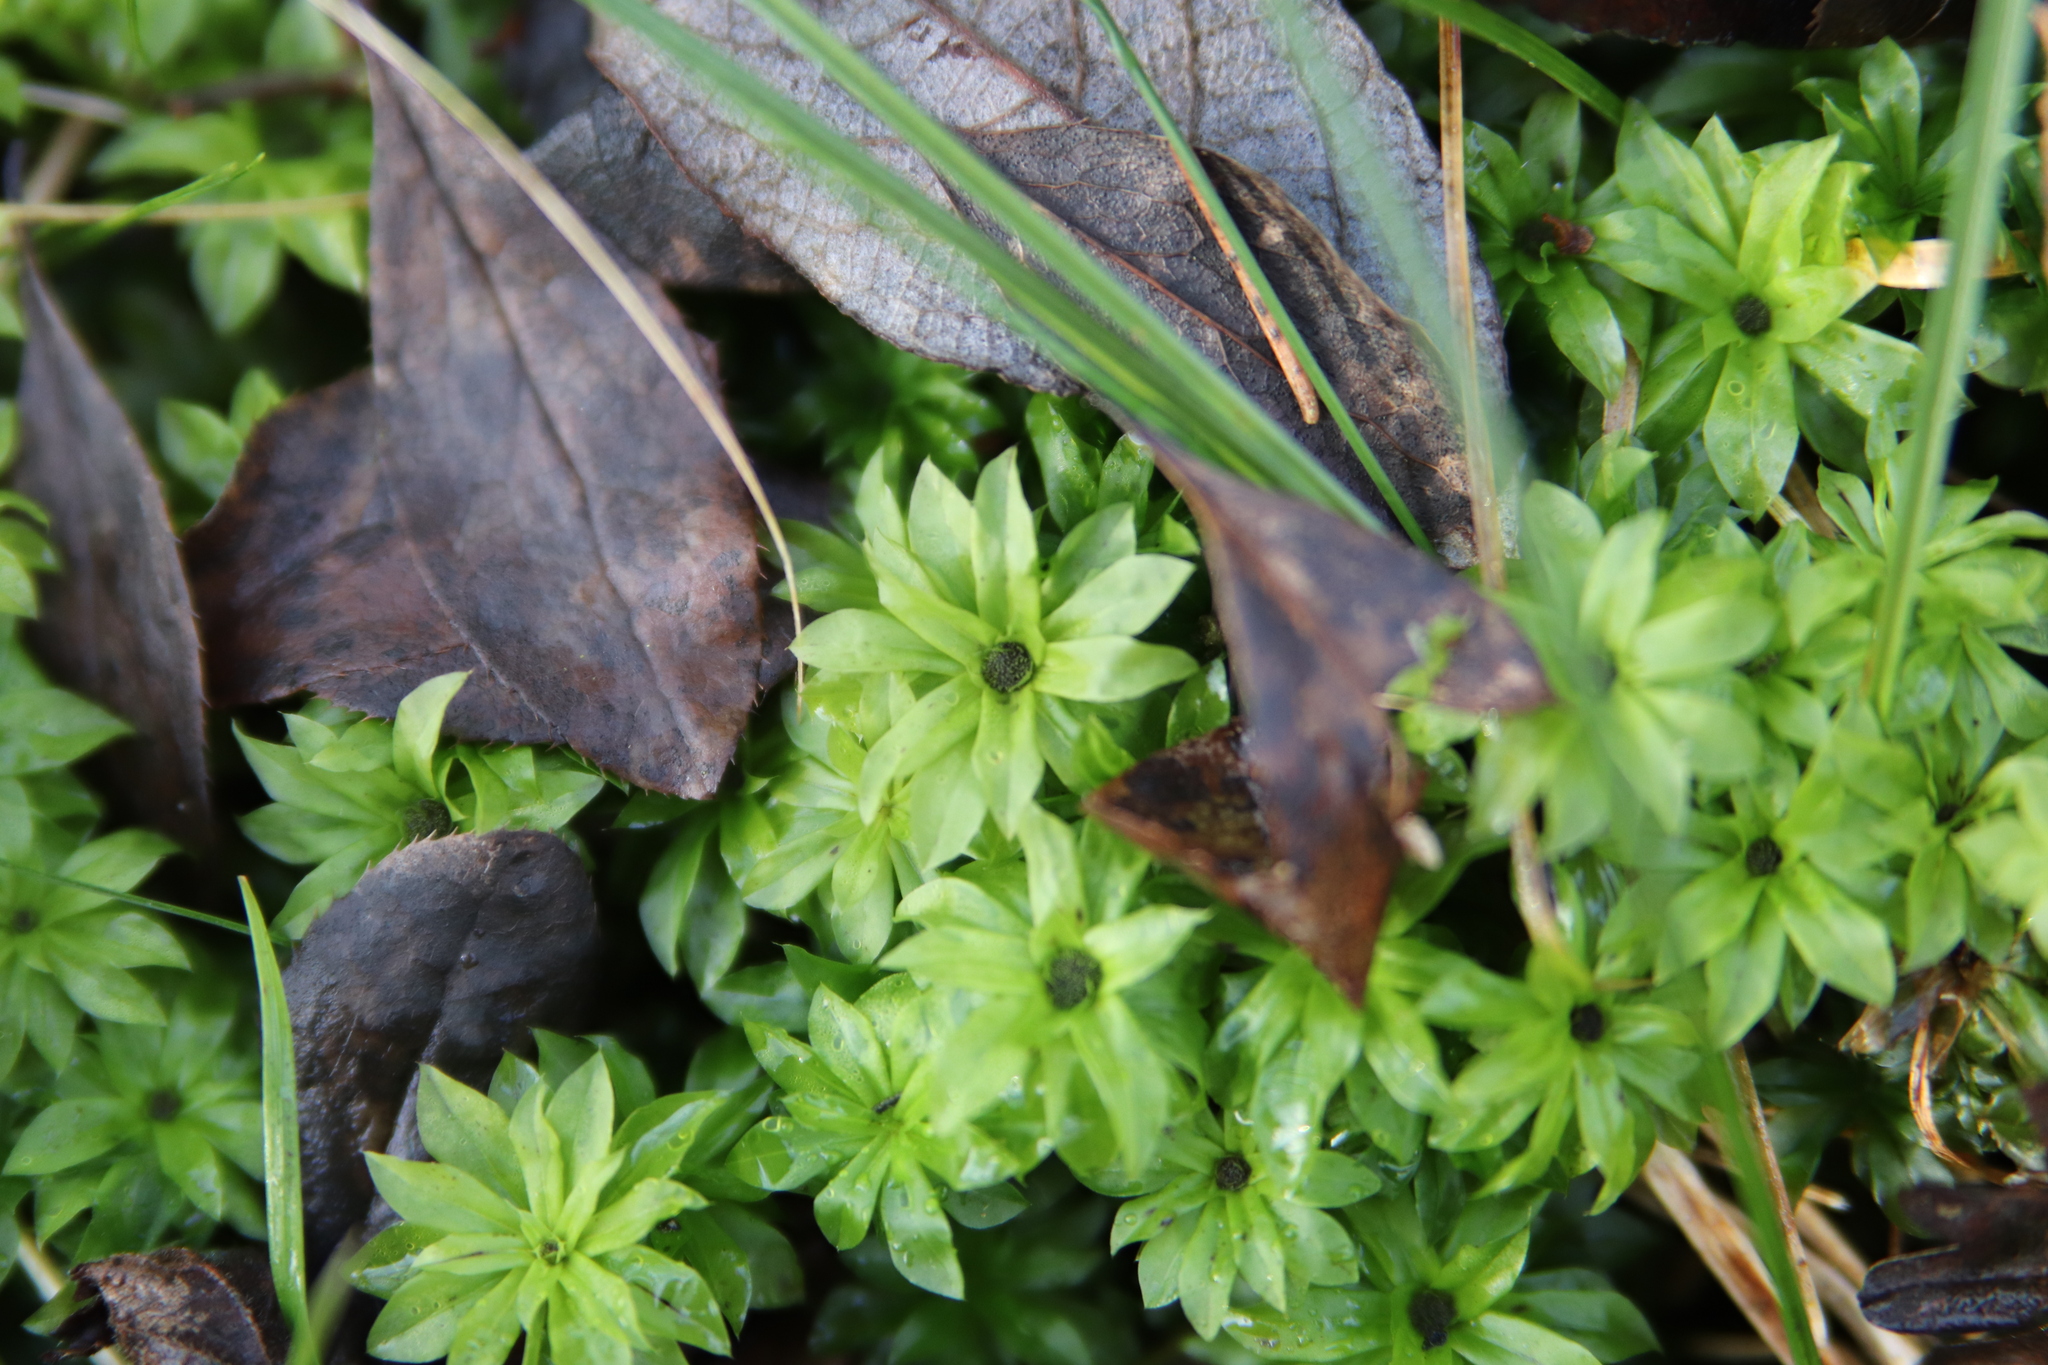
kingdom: Plantae
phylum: Bryophyta
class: Bryopsida
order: Bryales
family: Bryaceae
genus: Rhodobryum
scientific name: Rhodobryum roseum
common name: Rose-moss
